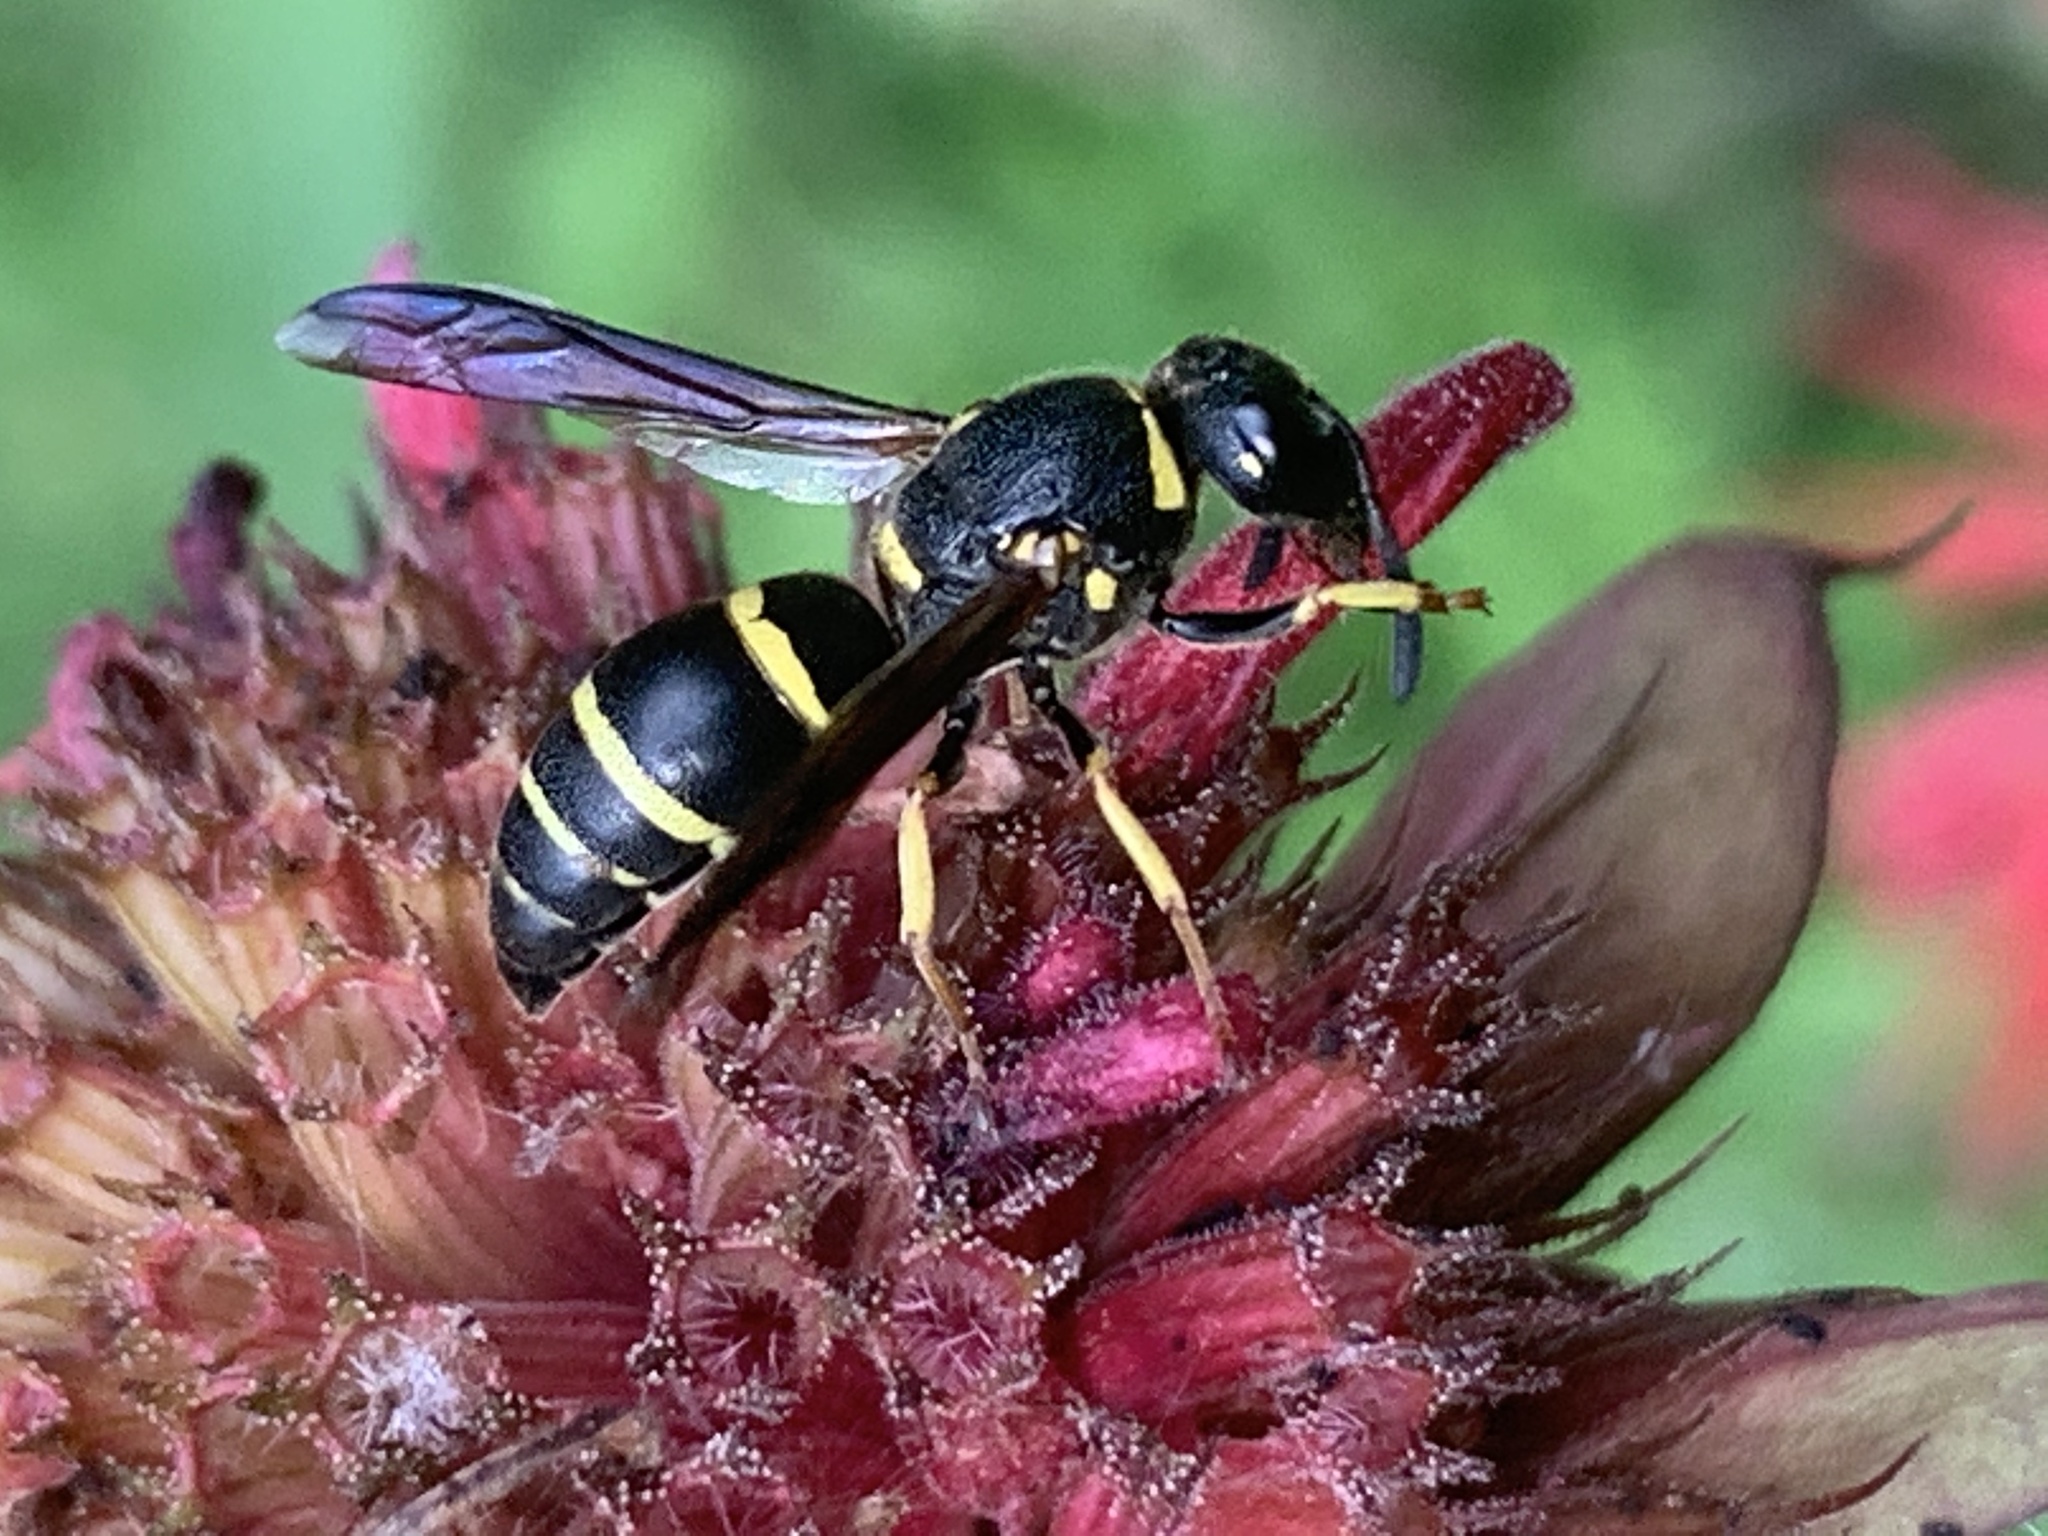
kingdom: Animalia
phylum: Arthropoda
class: Insecta
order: Hymenoptera
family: Eumenidae
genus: Euodynerus
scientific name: Euodynerus foraminatus
